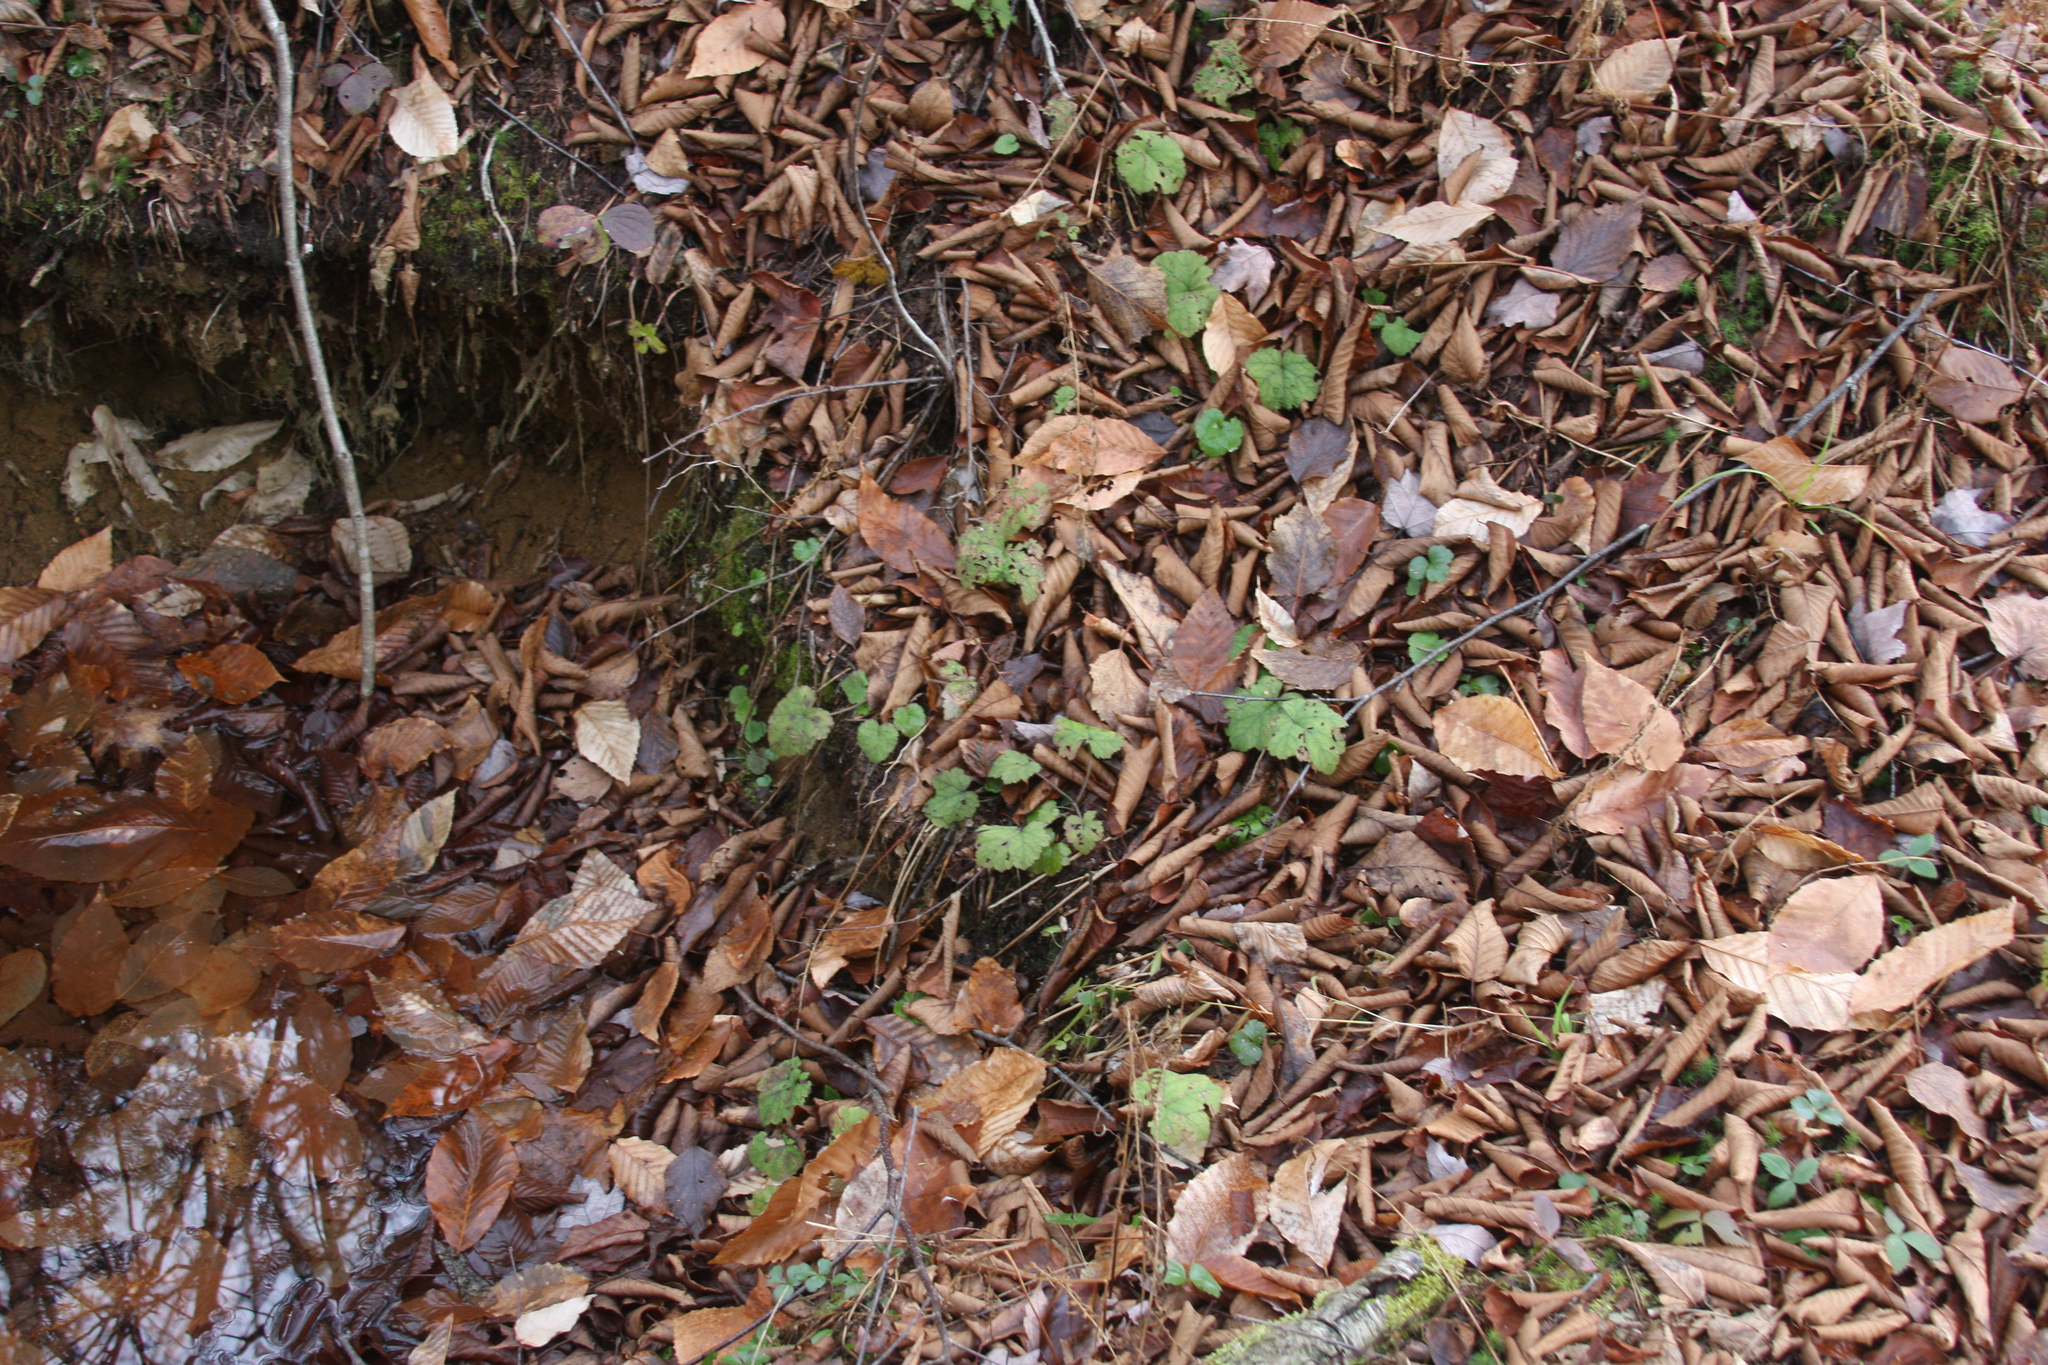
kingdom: Plantae
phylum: Tracheophyta
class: Magnoliopsida
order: Saxifragales
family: Saxifragaceae
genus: Tiarella
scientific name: Tiarella stolonifera
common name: Stoloniferous foamflower
